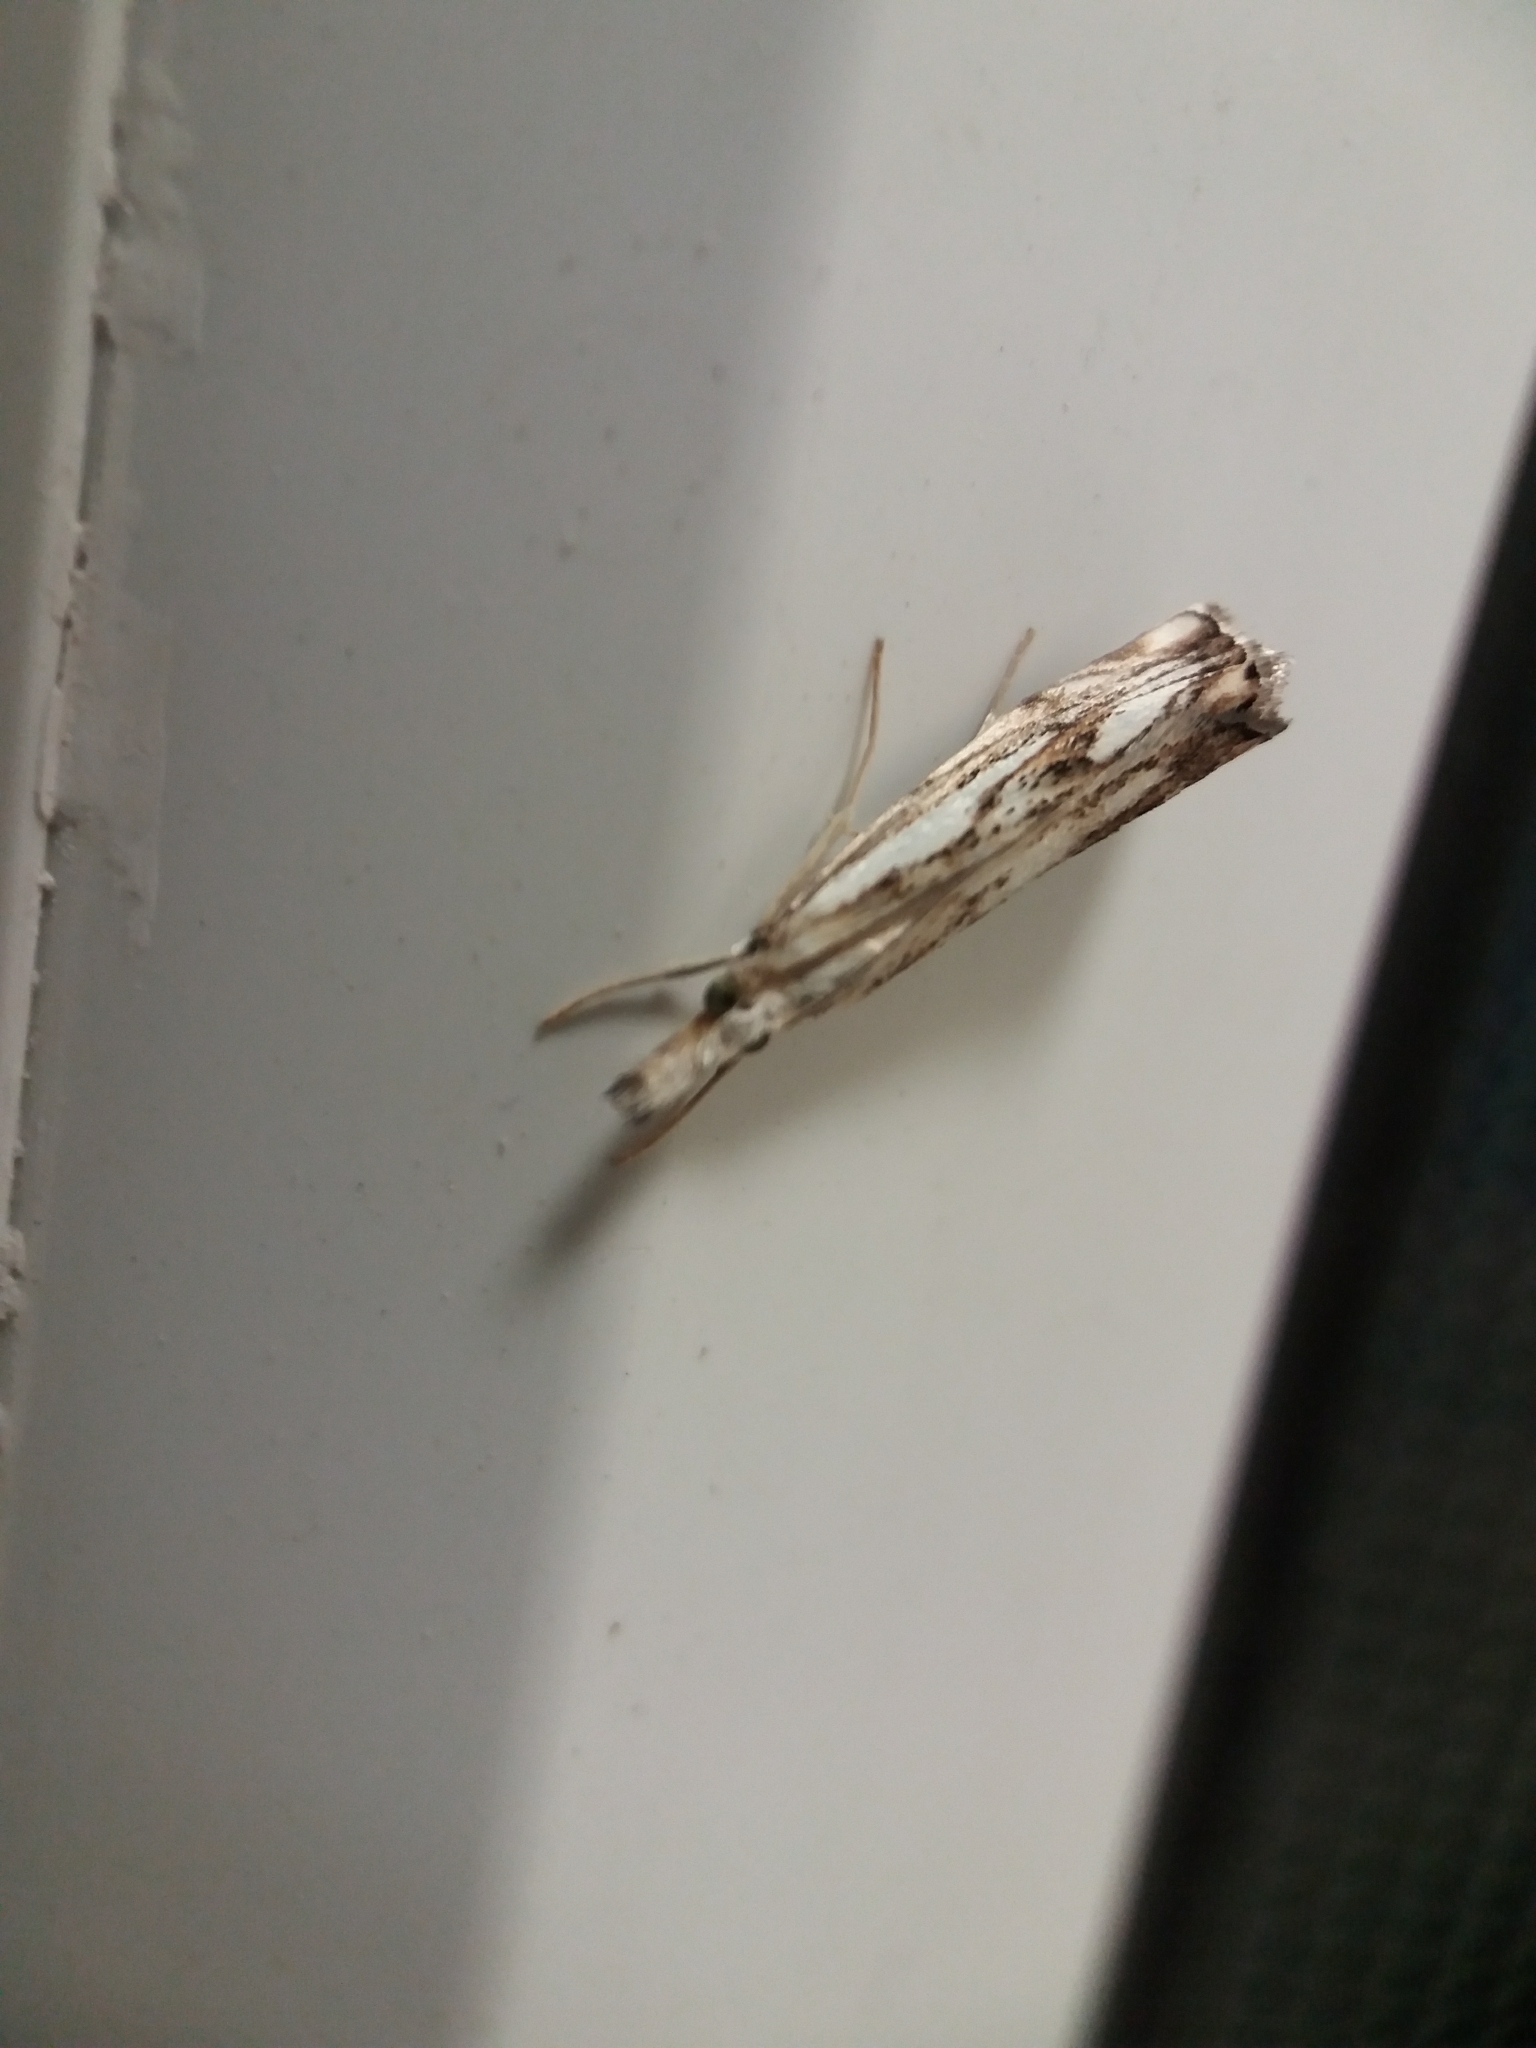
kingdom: Animalia
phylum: Arthropoda
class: Insecta
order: Lepidoptera
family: Crambidae
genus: Catoptria
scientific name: Catoptria falsella
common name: Chequered grass-veneer
